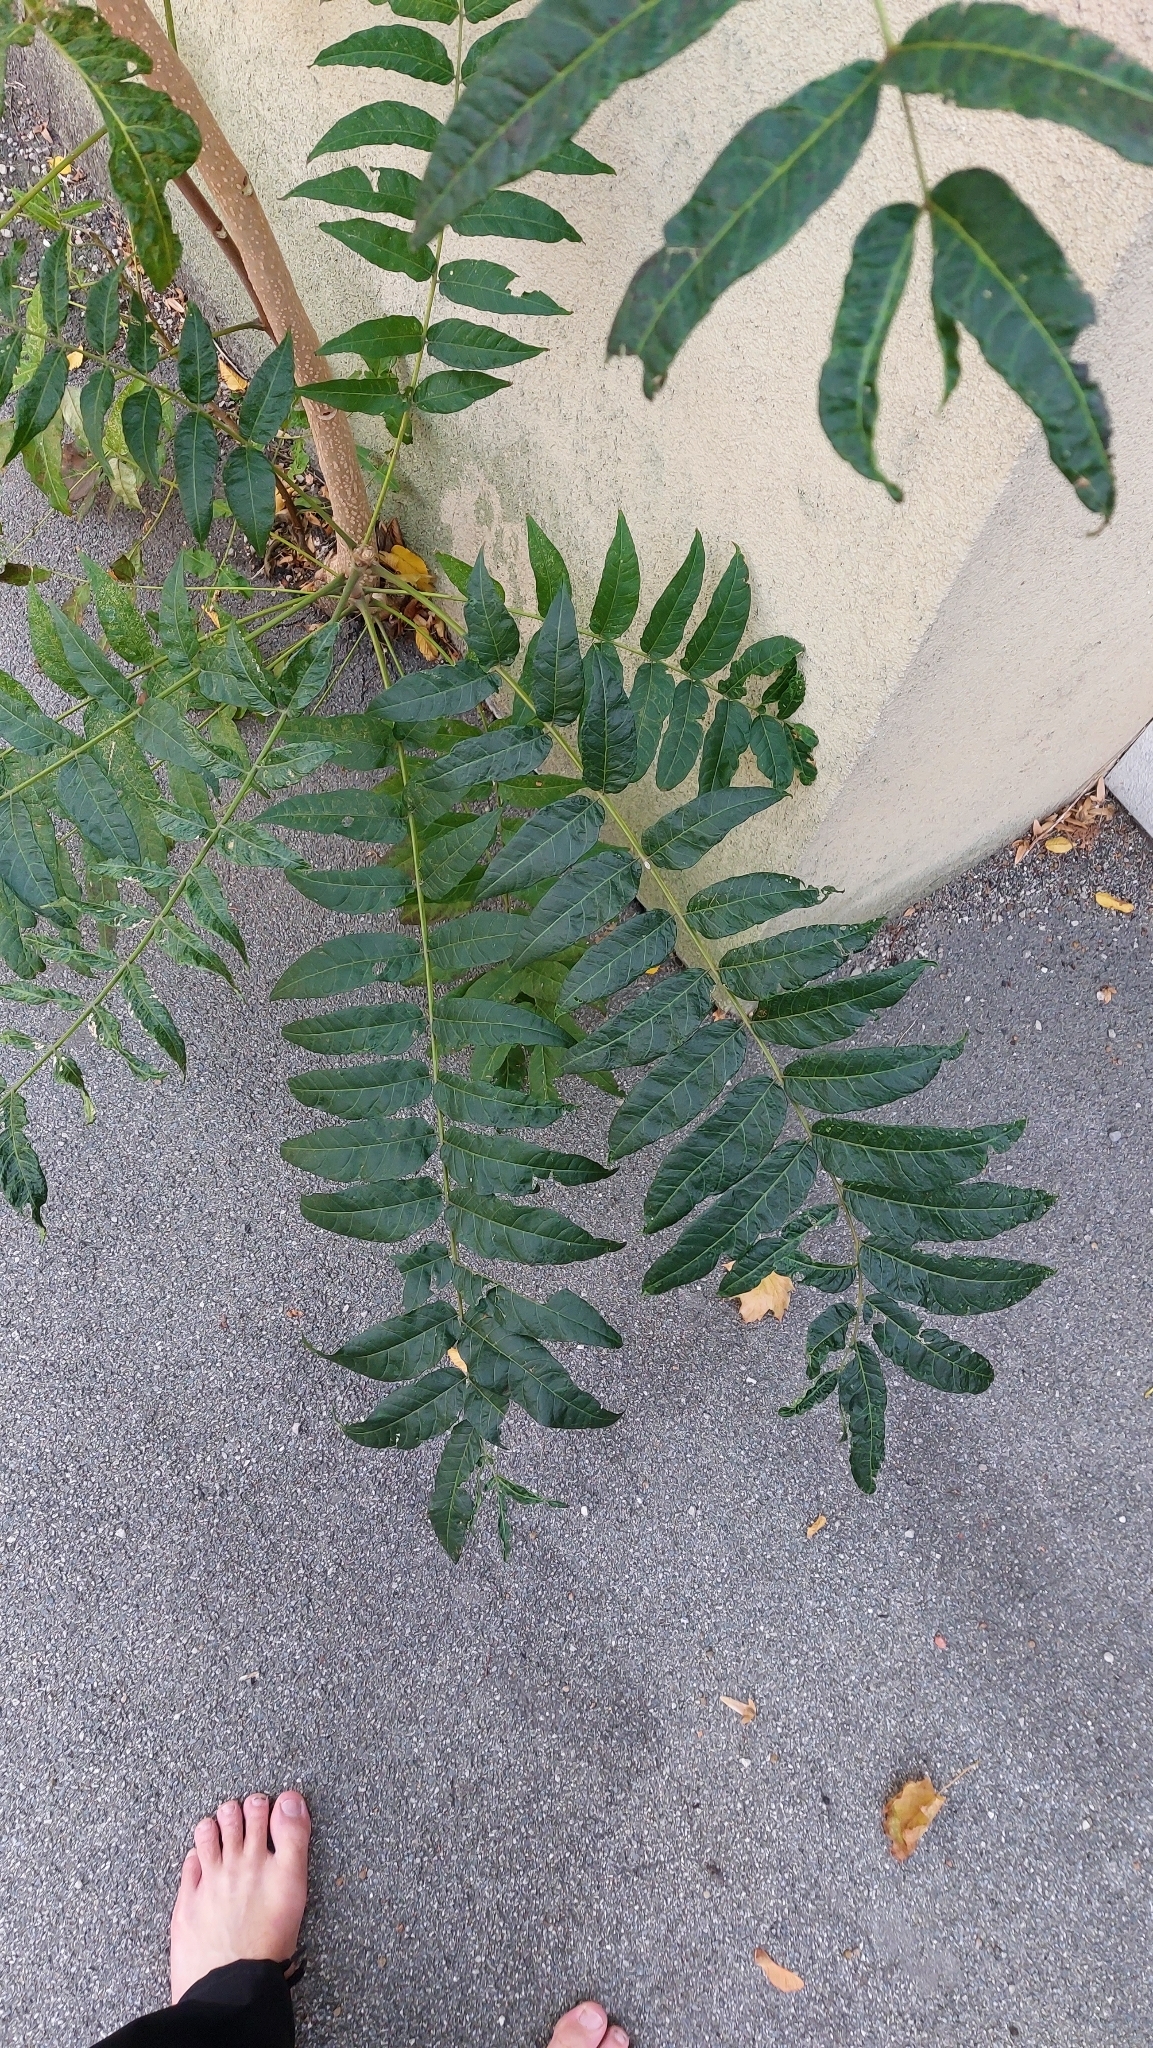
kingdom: Plantae
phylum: Tracheophyta
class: Magnoliopsida
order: Sapindales
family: Simaroubaceae
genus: Ailanthus
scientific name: Ailanthus altissima
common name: Tree-of-heaven
